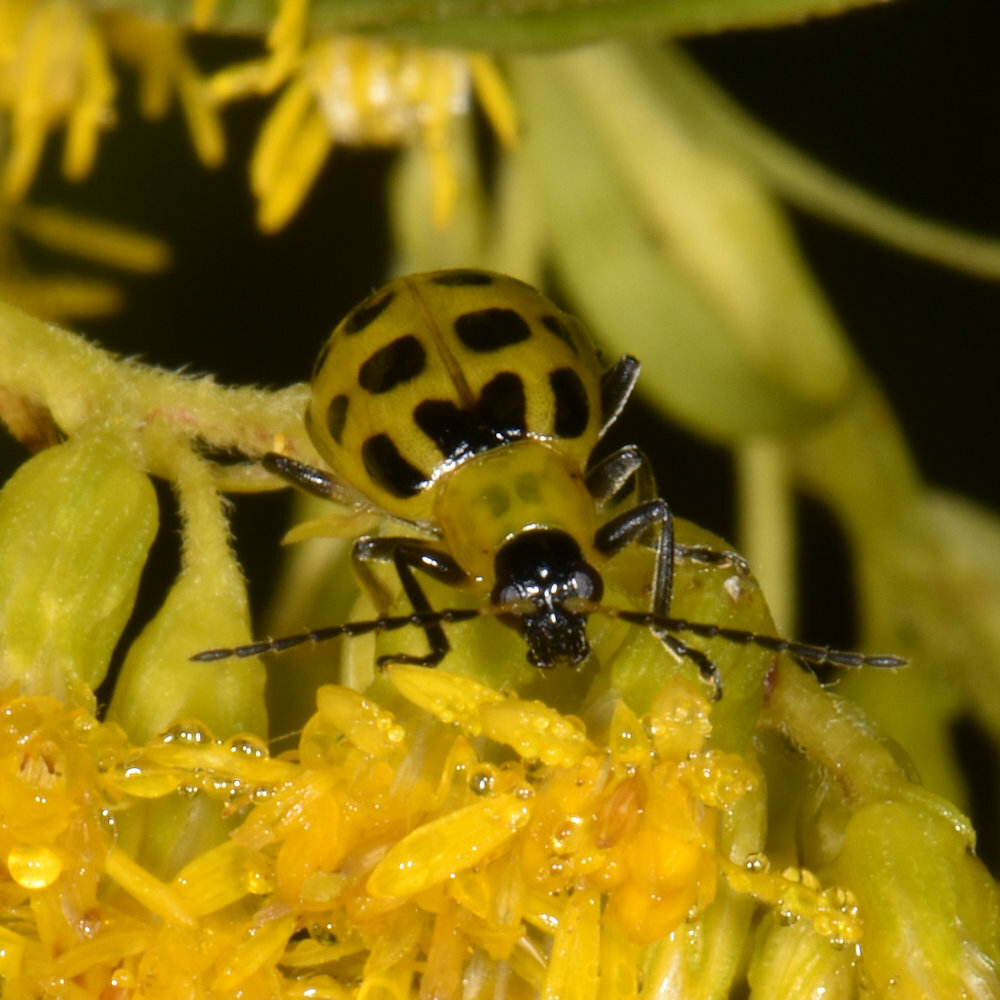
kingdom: Animalia
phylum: Arthropoda
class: Insecta
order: Coleoptera
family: Chrysomelidae
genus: Diabrotica
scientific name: Diabrotica undecimpunctata
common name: Spotted cucumber beetle
